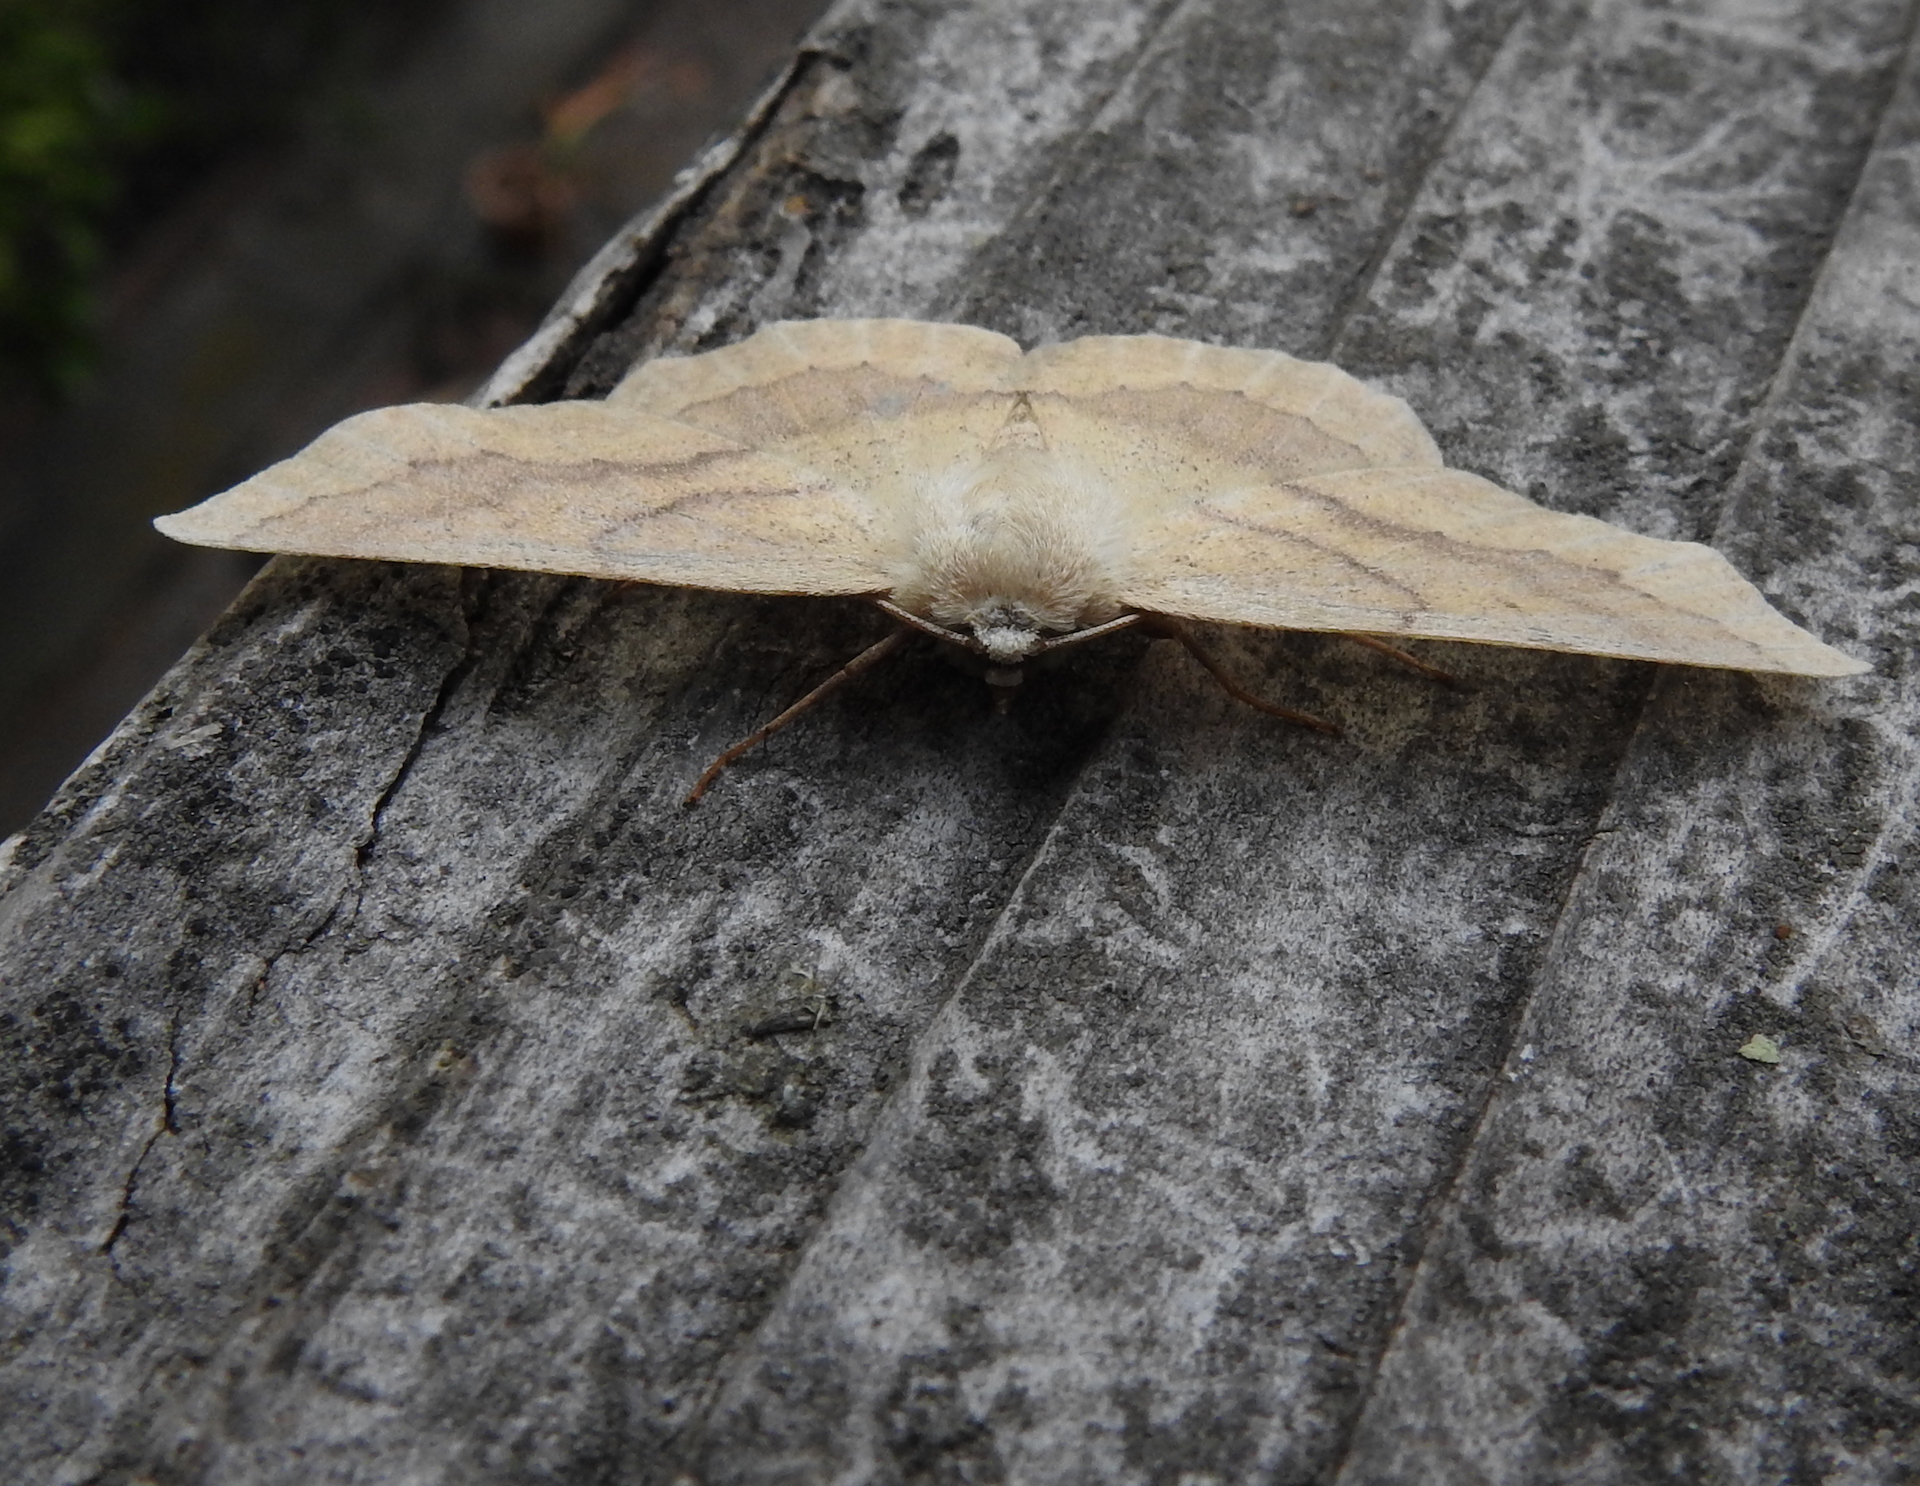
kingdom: Animalia
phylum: Arthropoda
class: Insecta
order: Lepidoptera
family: Geometridae
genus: Sabulodes
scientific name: Sabulodes aegrotata
